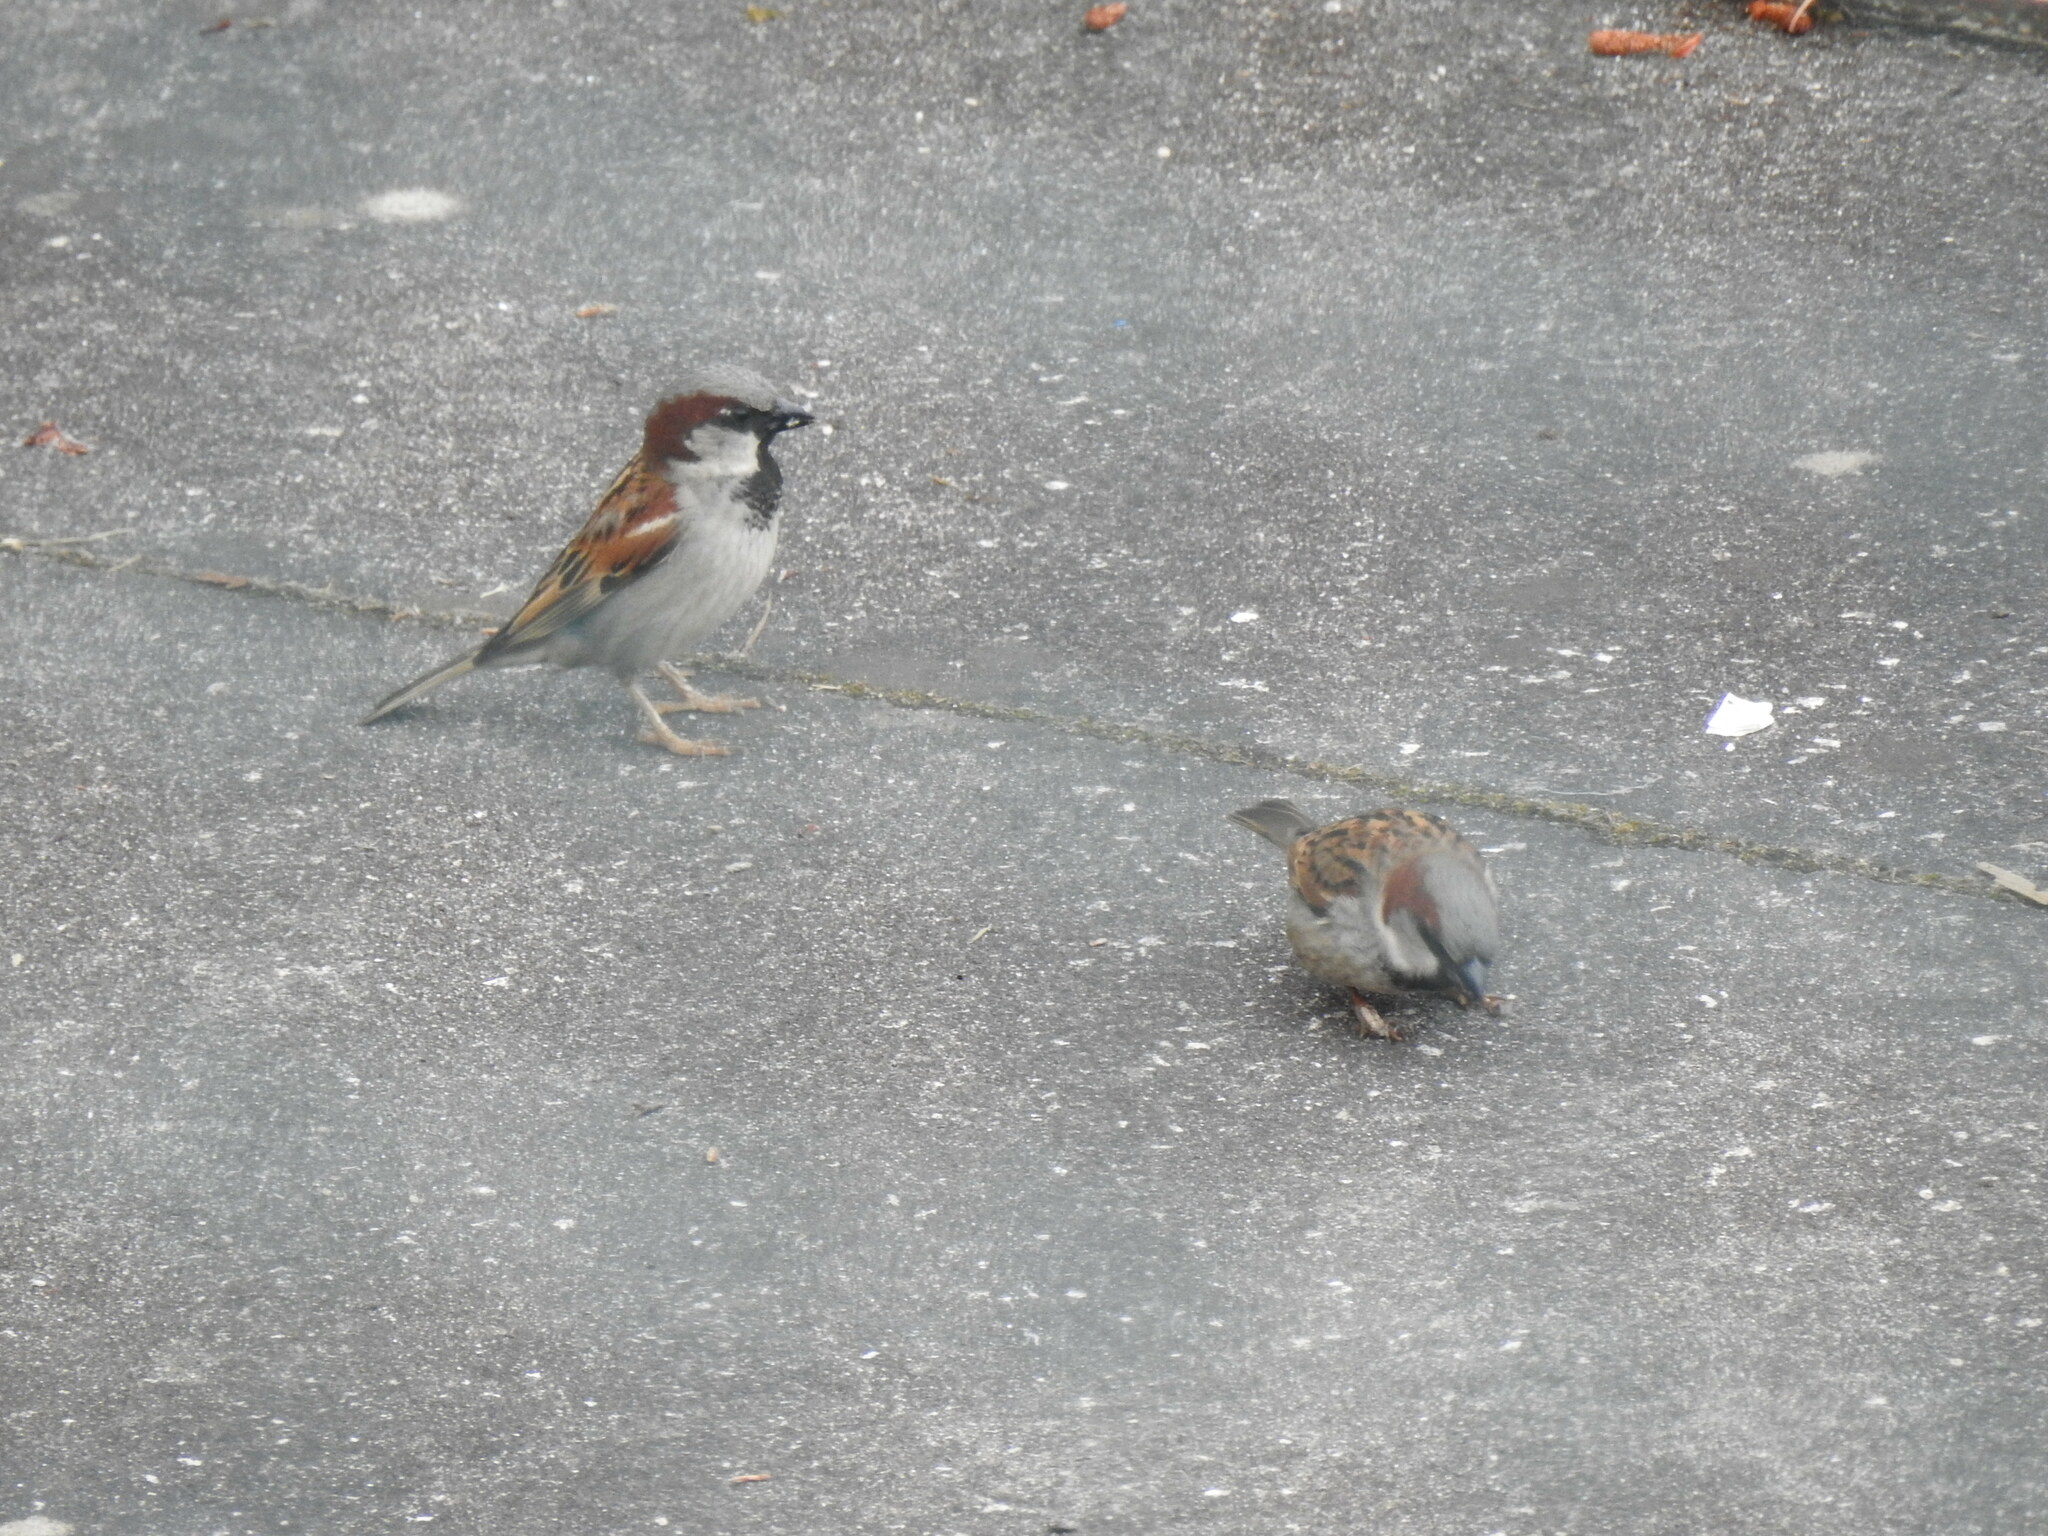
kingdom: Animalia
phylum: Chordata
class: Aves
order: Passeriformes
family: Passeridae
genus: Passer
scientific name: Passer domesticus
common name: House sparrow
